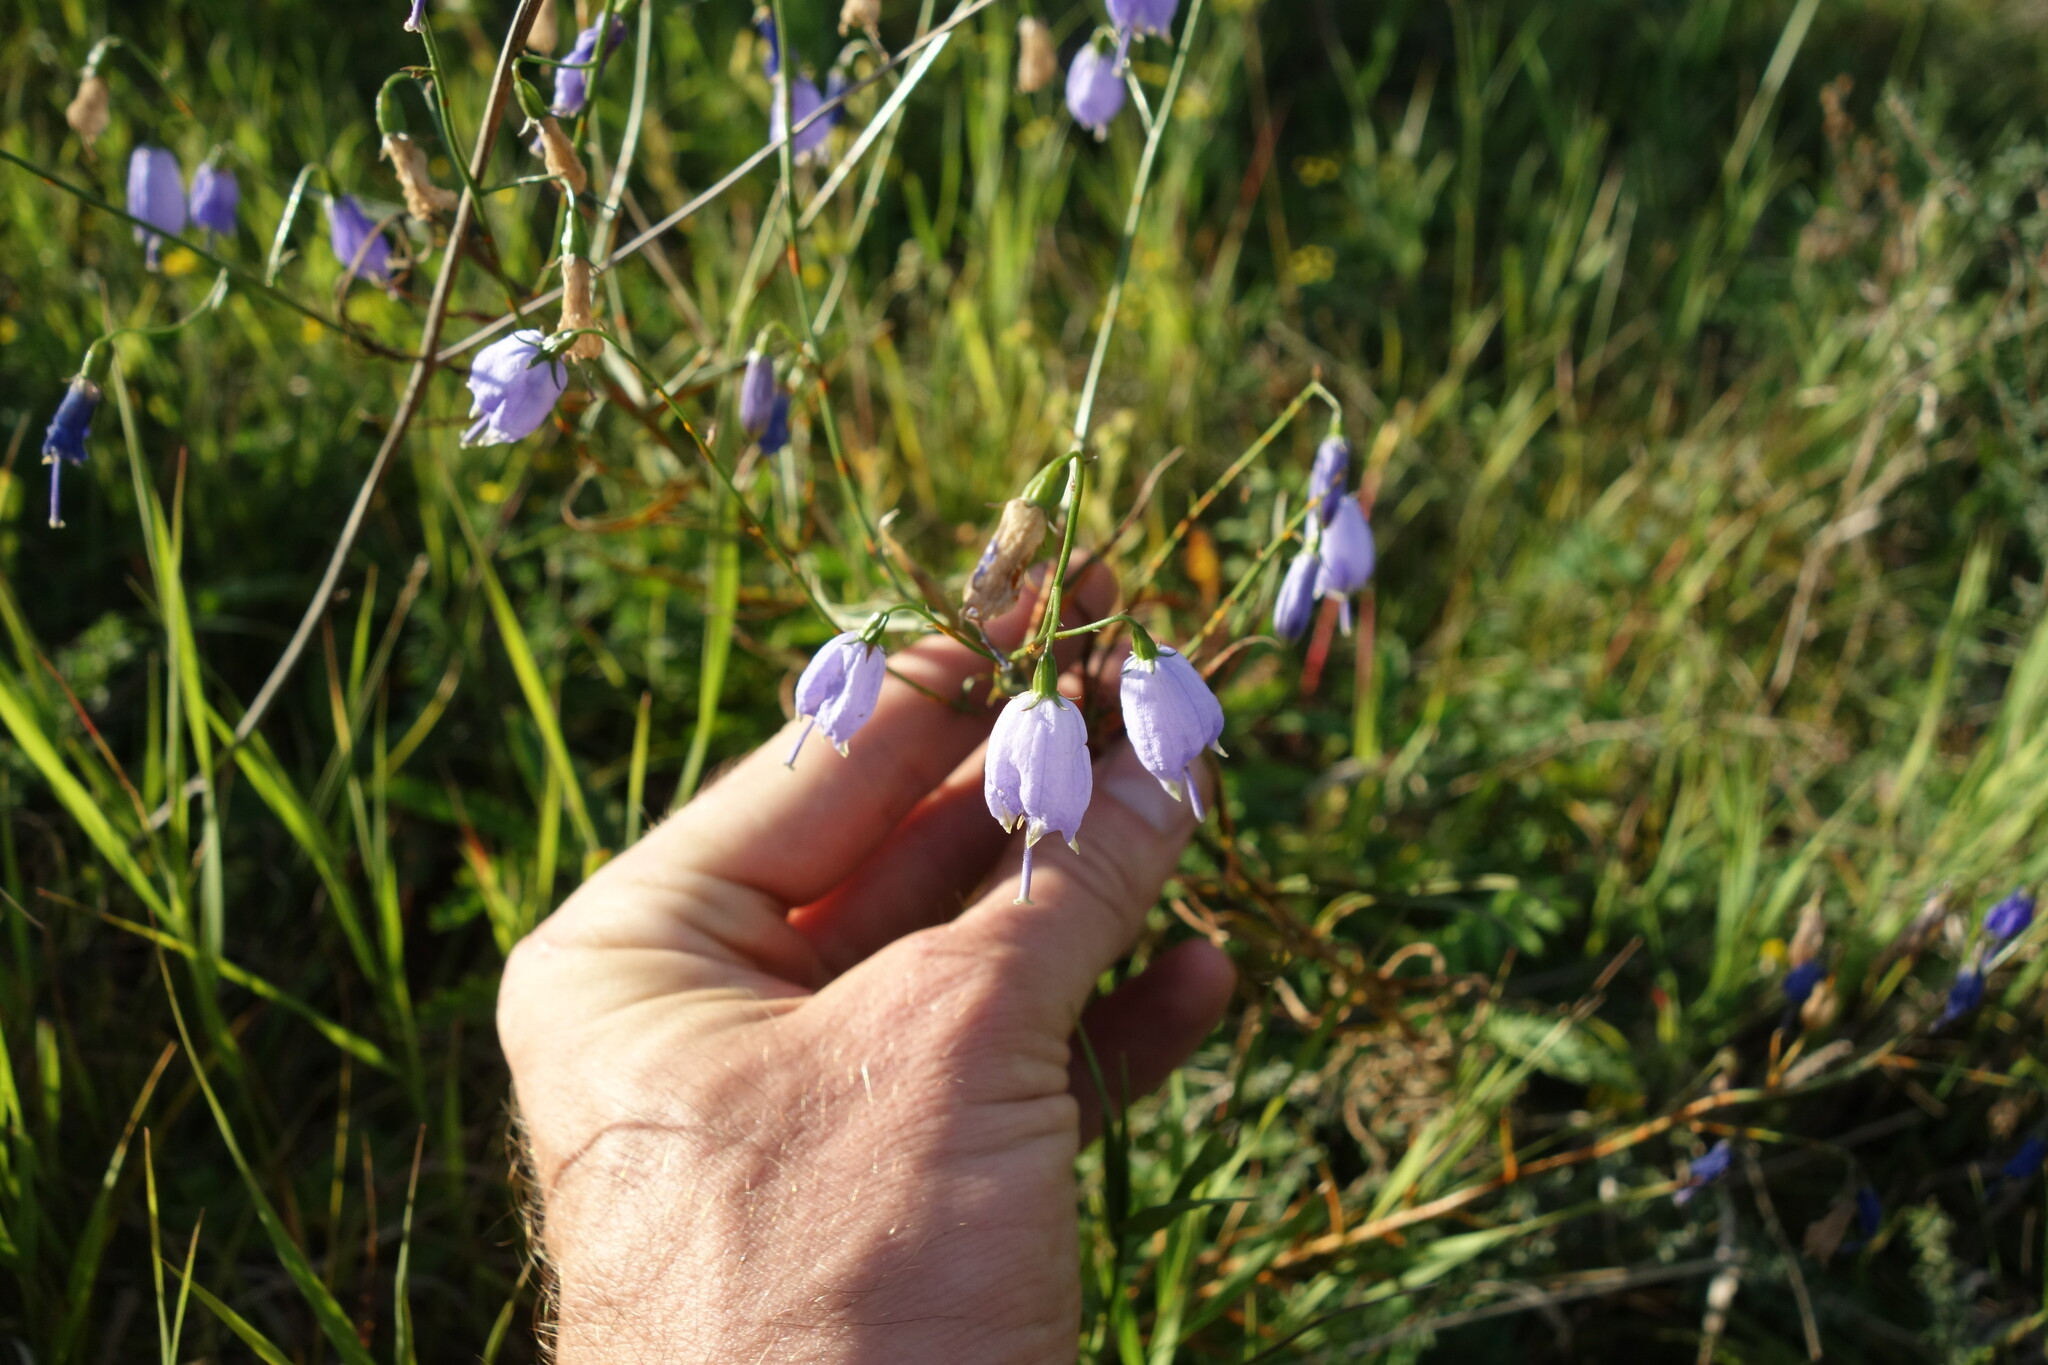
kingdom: Plantae
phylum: Tracheophyta
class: Magnoliopsida
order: Asterales
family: Campanulaceae
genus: Adenophora
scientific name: Adenophora stenanthina
